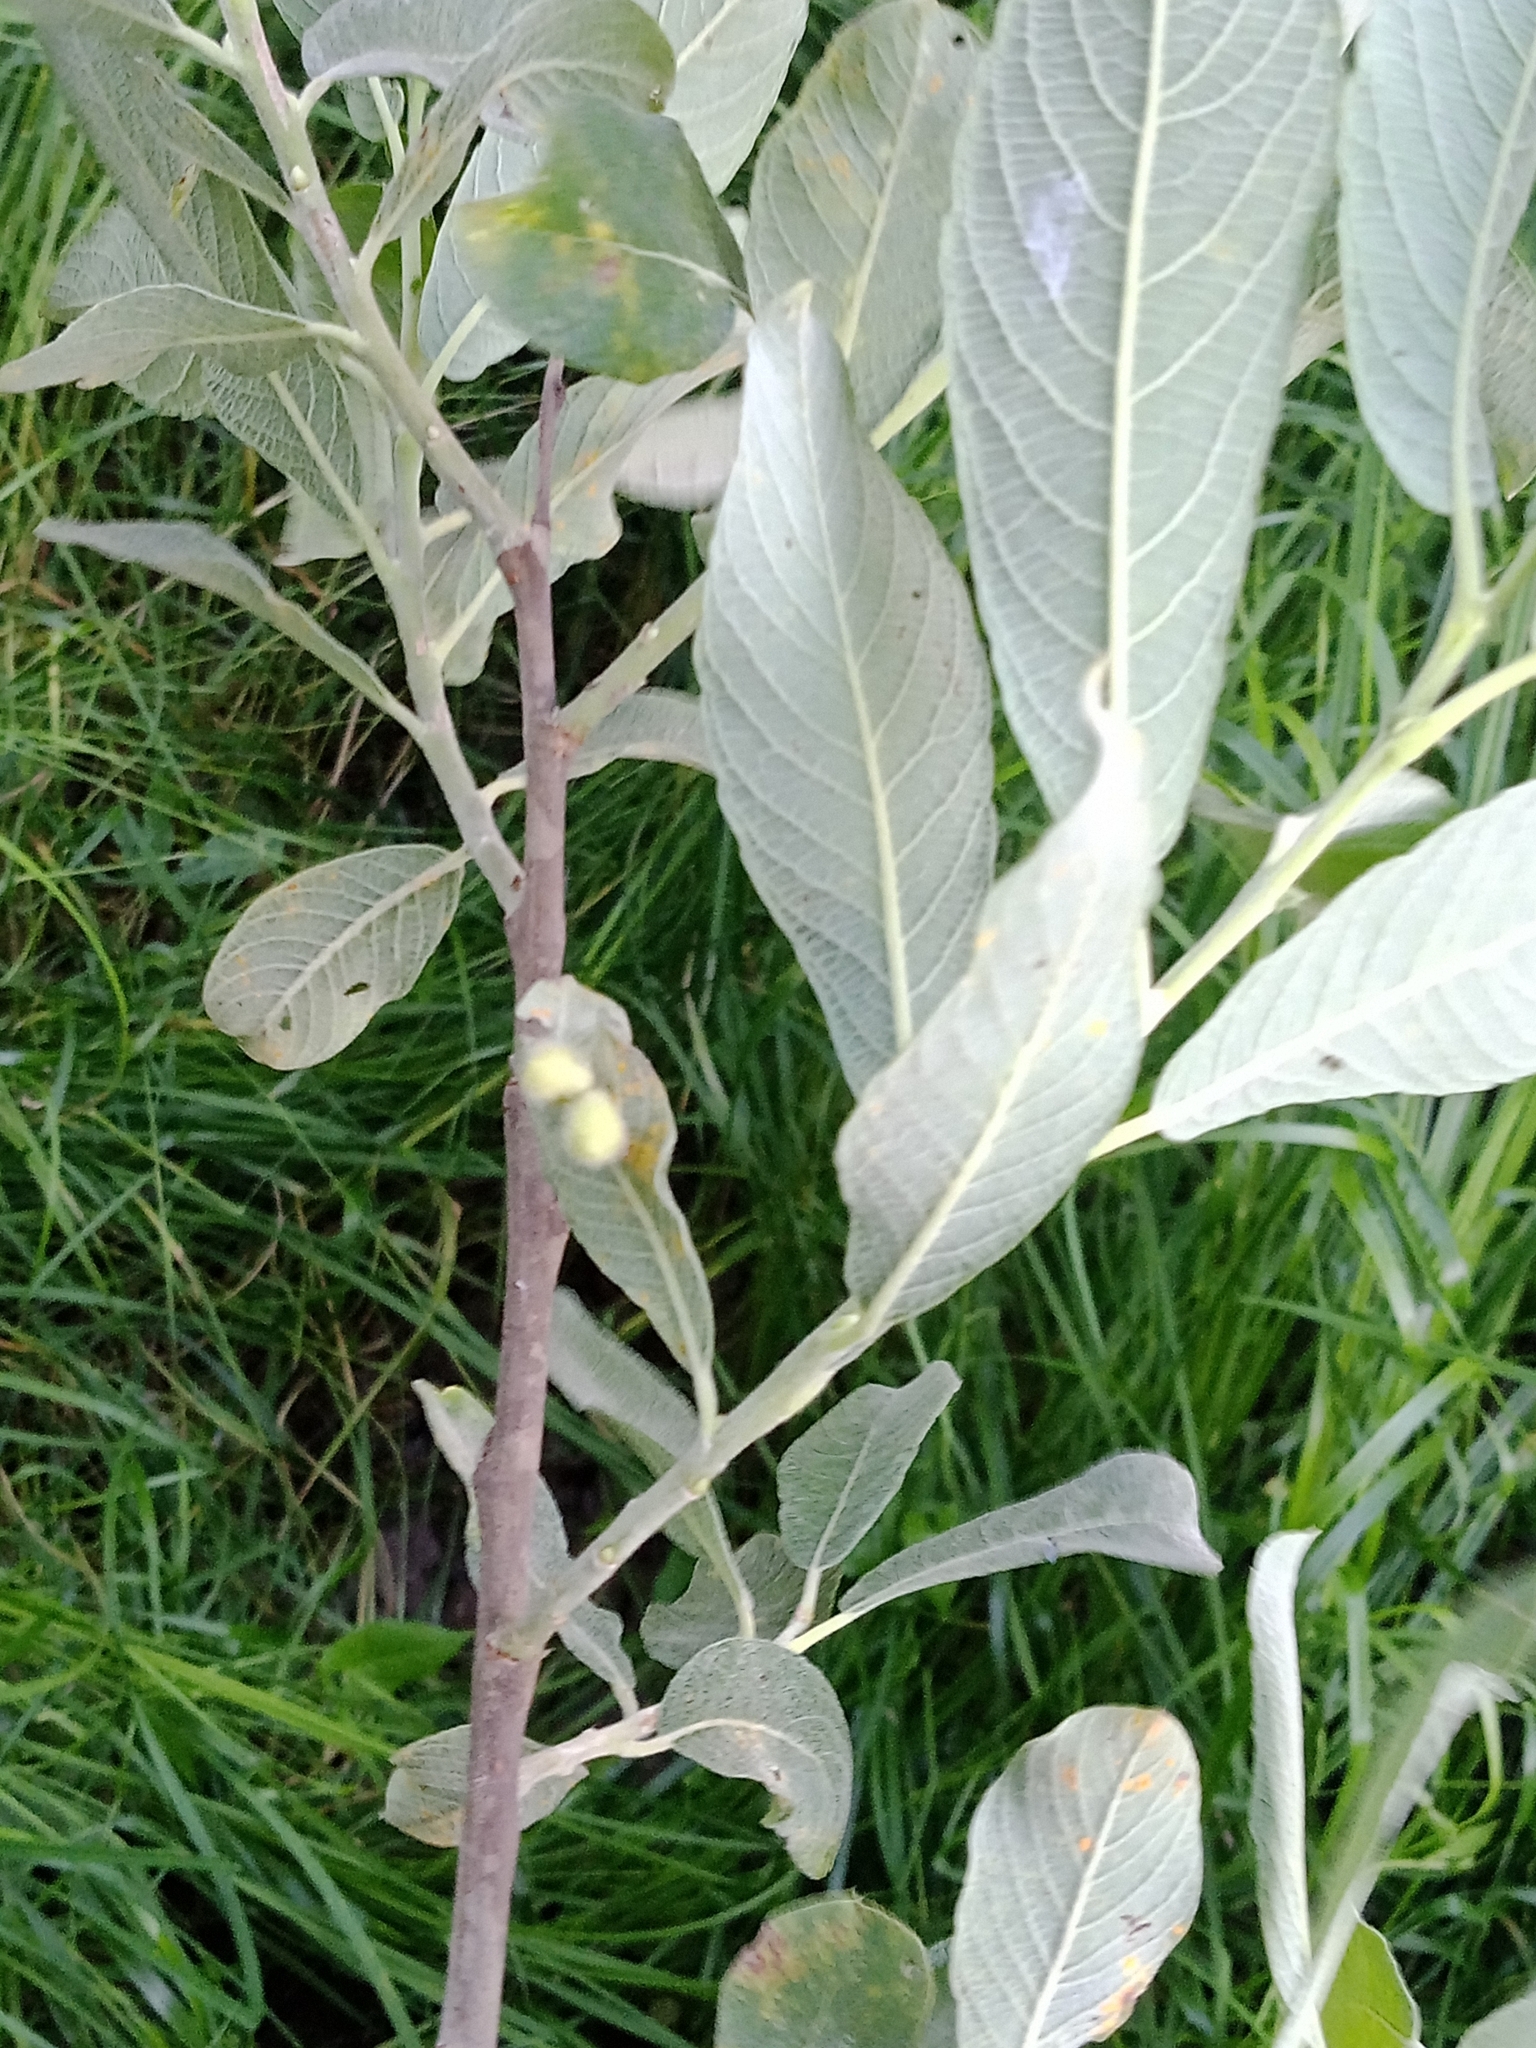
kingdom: Animalia
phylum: Arthropoda
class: Insecta
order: Hymenoptera
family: Tenthredinidae
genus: Pontania
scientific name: Pontania pedunculi
